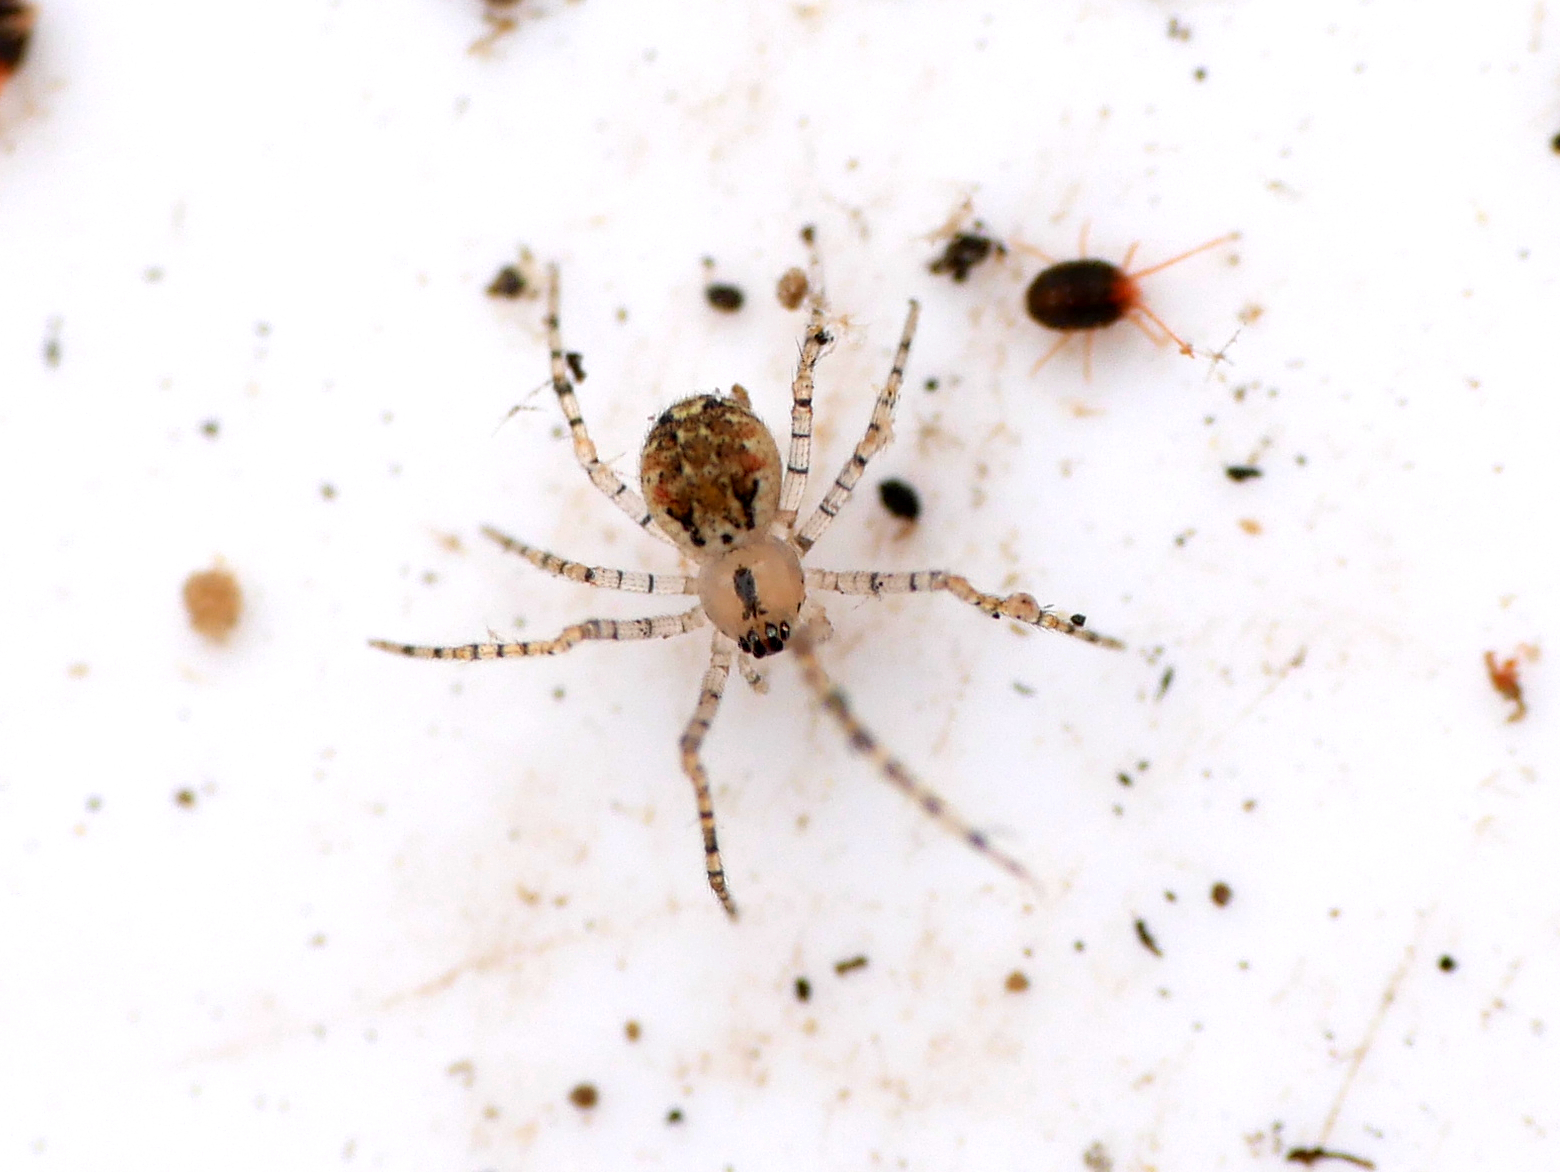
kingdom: Animalia
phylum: Arthropoda
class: Arachnida
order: Araneae
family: Theridiidae
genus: Platnickina
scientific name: Platnickina tincta
